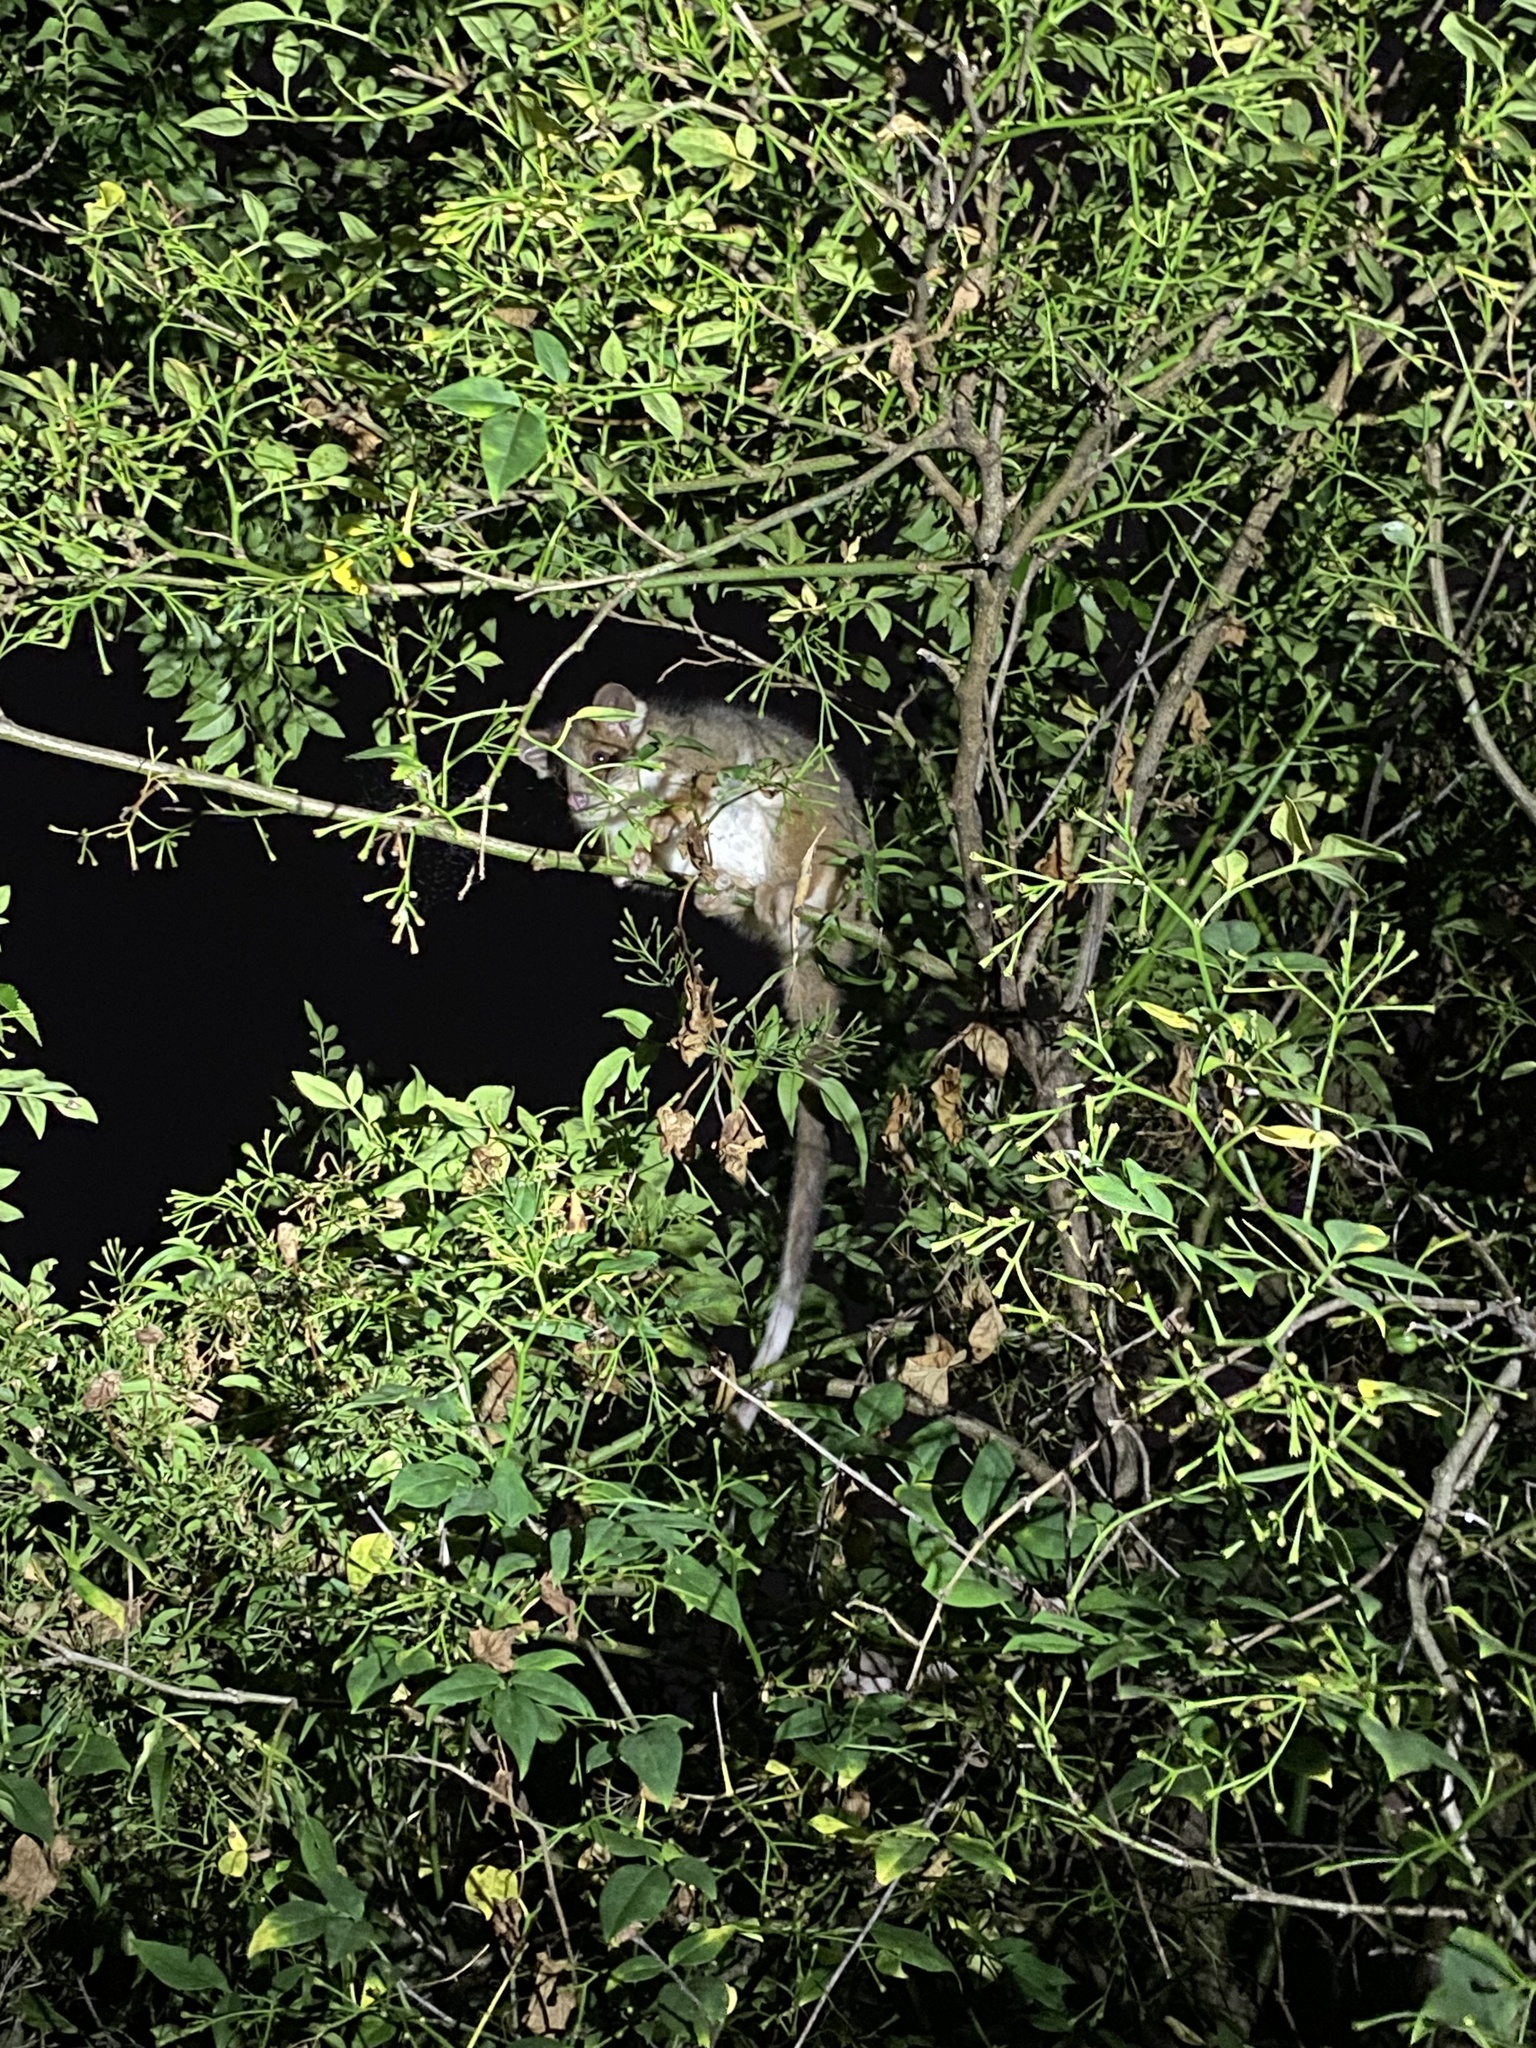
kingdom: Animalia
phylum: Chordata
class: Mammalia
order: Diprotodontia
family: Pseudocheiridae
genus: Pseudocheirus
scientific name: Pseudocheirus peregrinus
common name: Common ringtail possum
